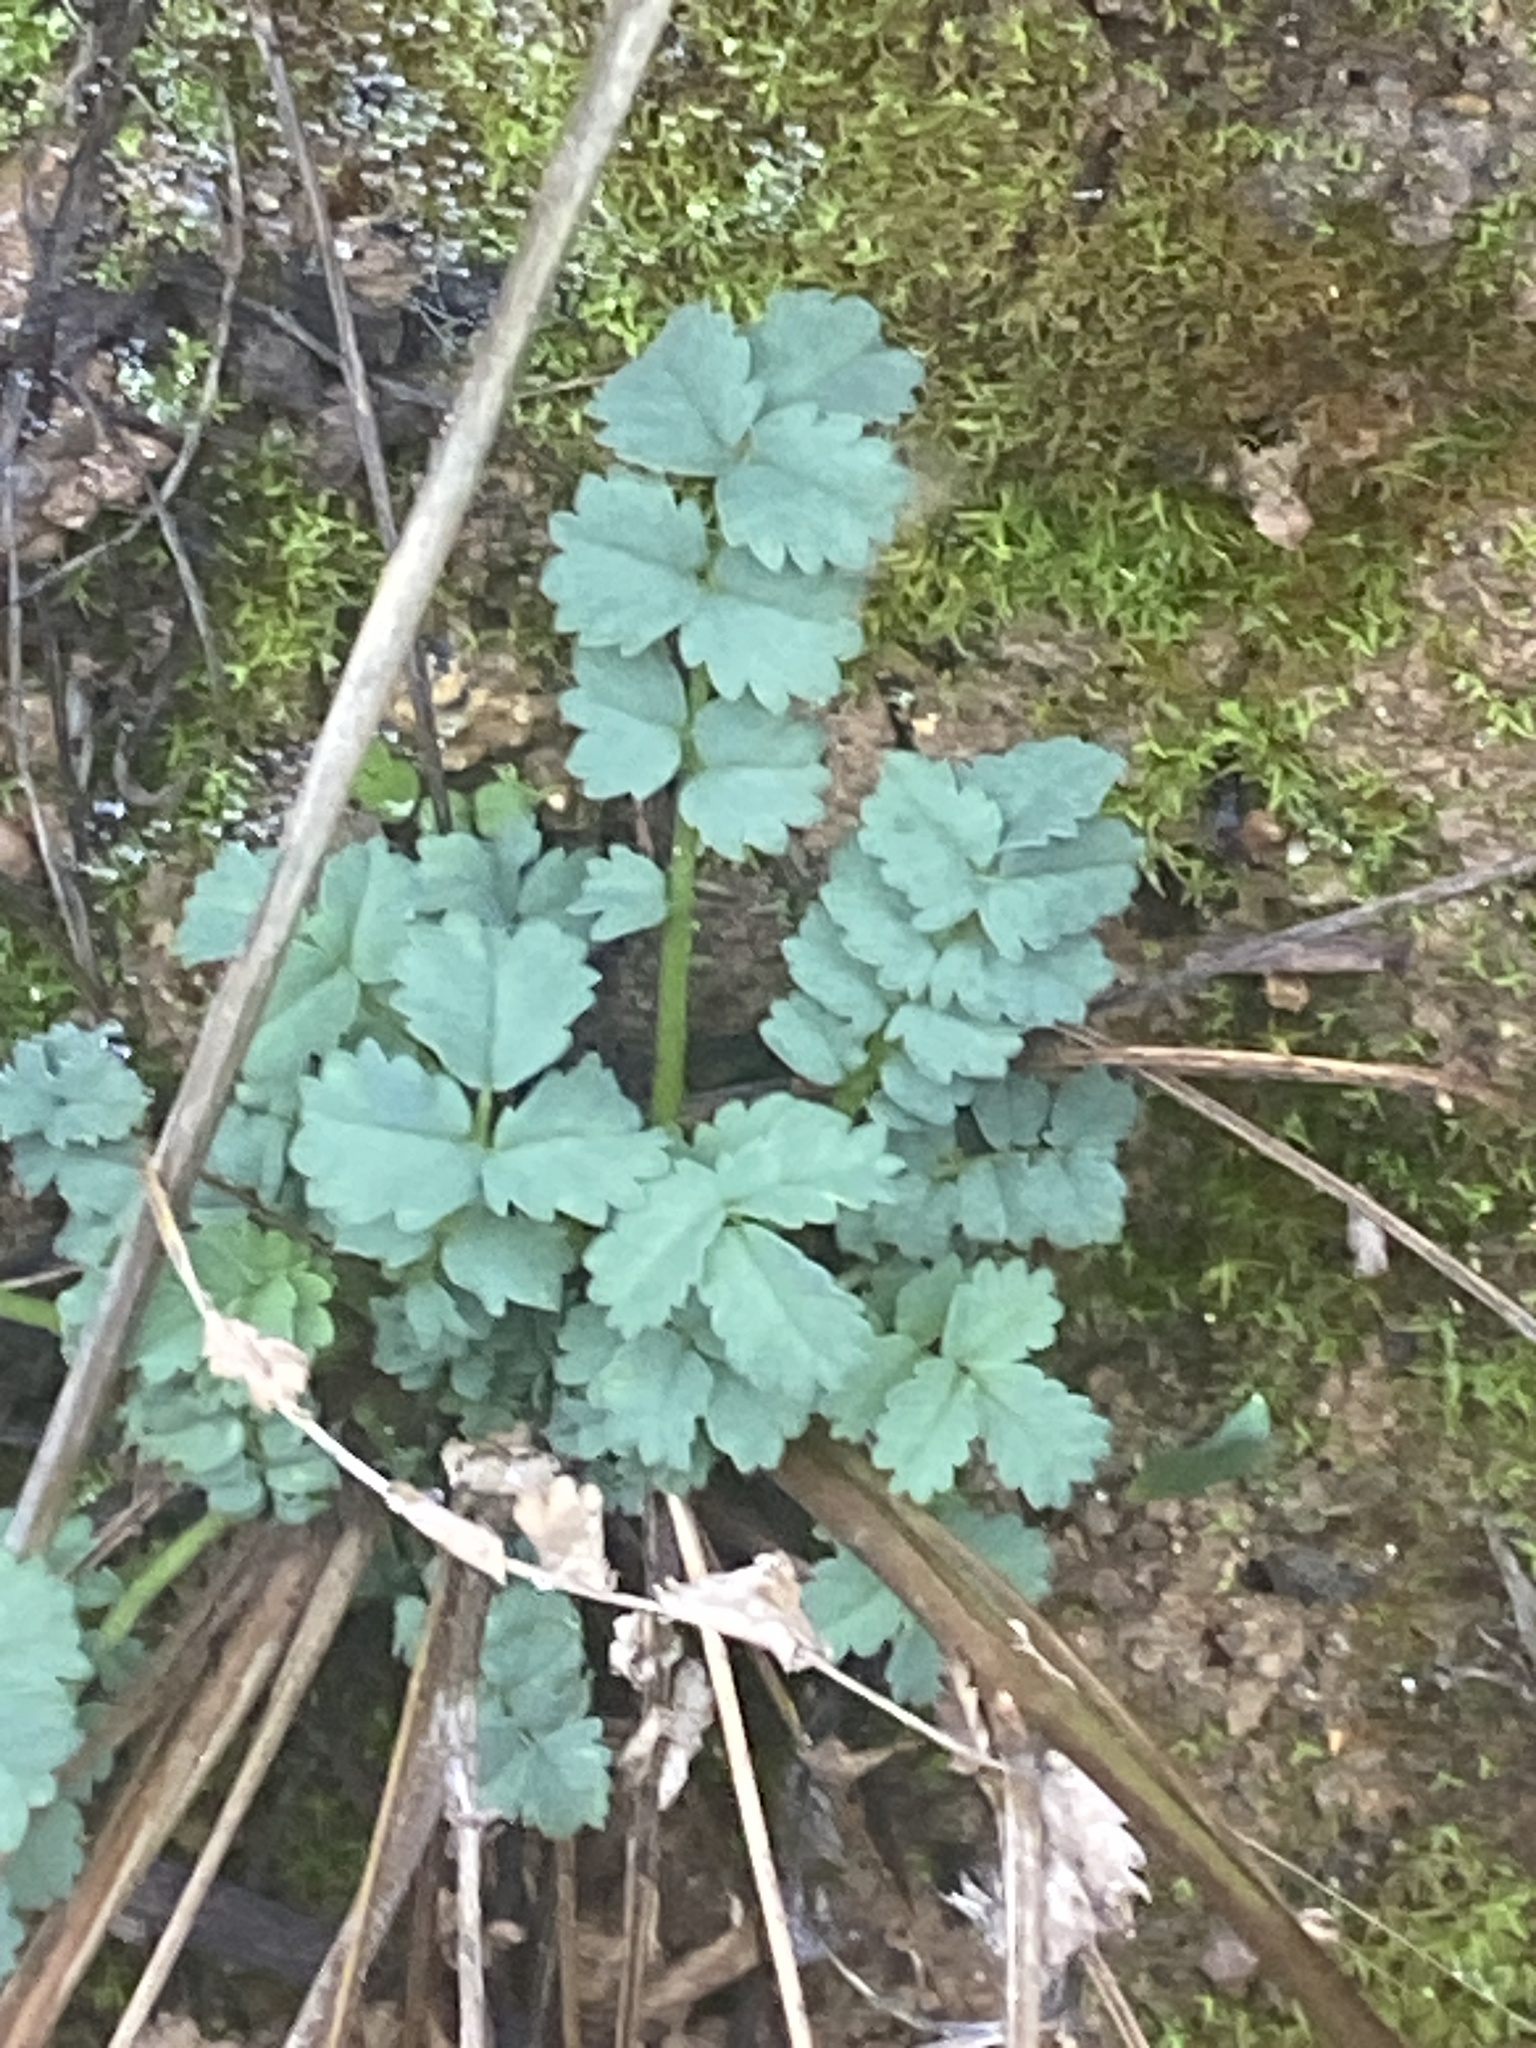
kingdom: Plantae
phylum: Tracheophyta
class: Magnoliopsida
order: Rosales
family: Rosaceae
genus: Poterium
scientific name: Poterium sanguisorba
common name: Salad burnet
